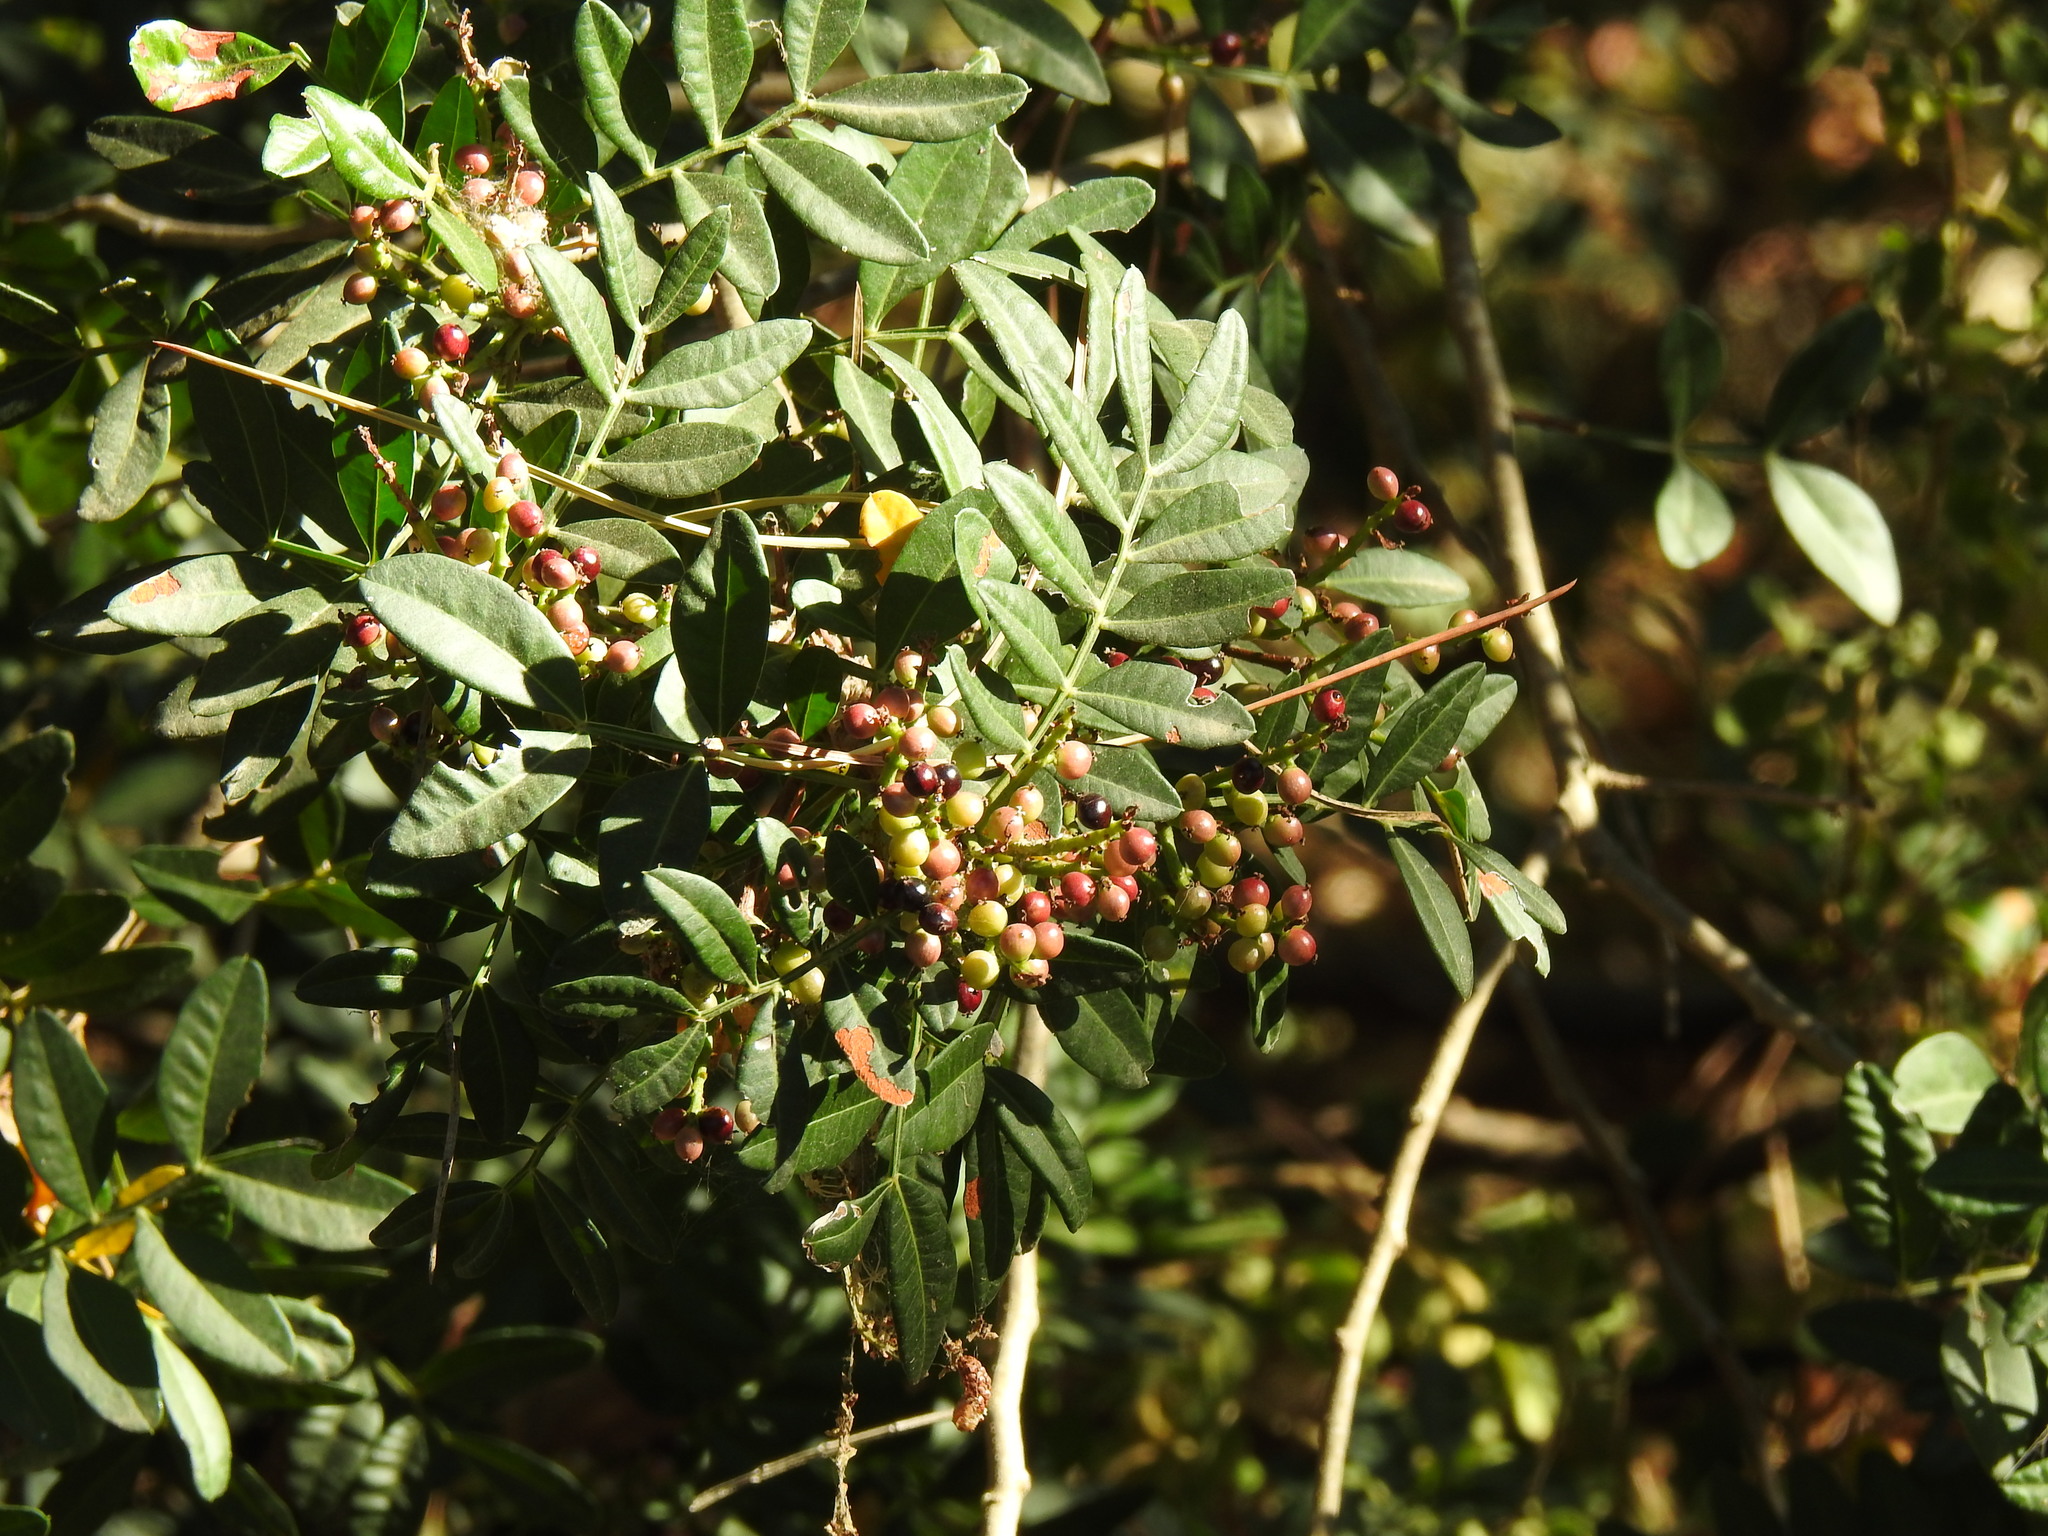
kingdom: Plantae
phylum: Tracheophyta
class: Magnoliopsida
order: Sapindales
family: Anacardiaceae
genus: Pistacia
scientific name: Pistacia lentiscus
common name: Lentisk
